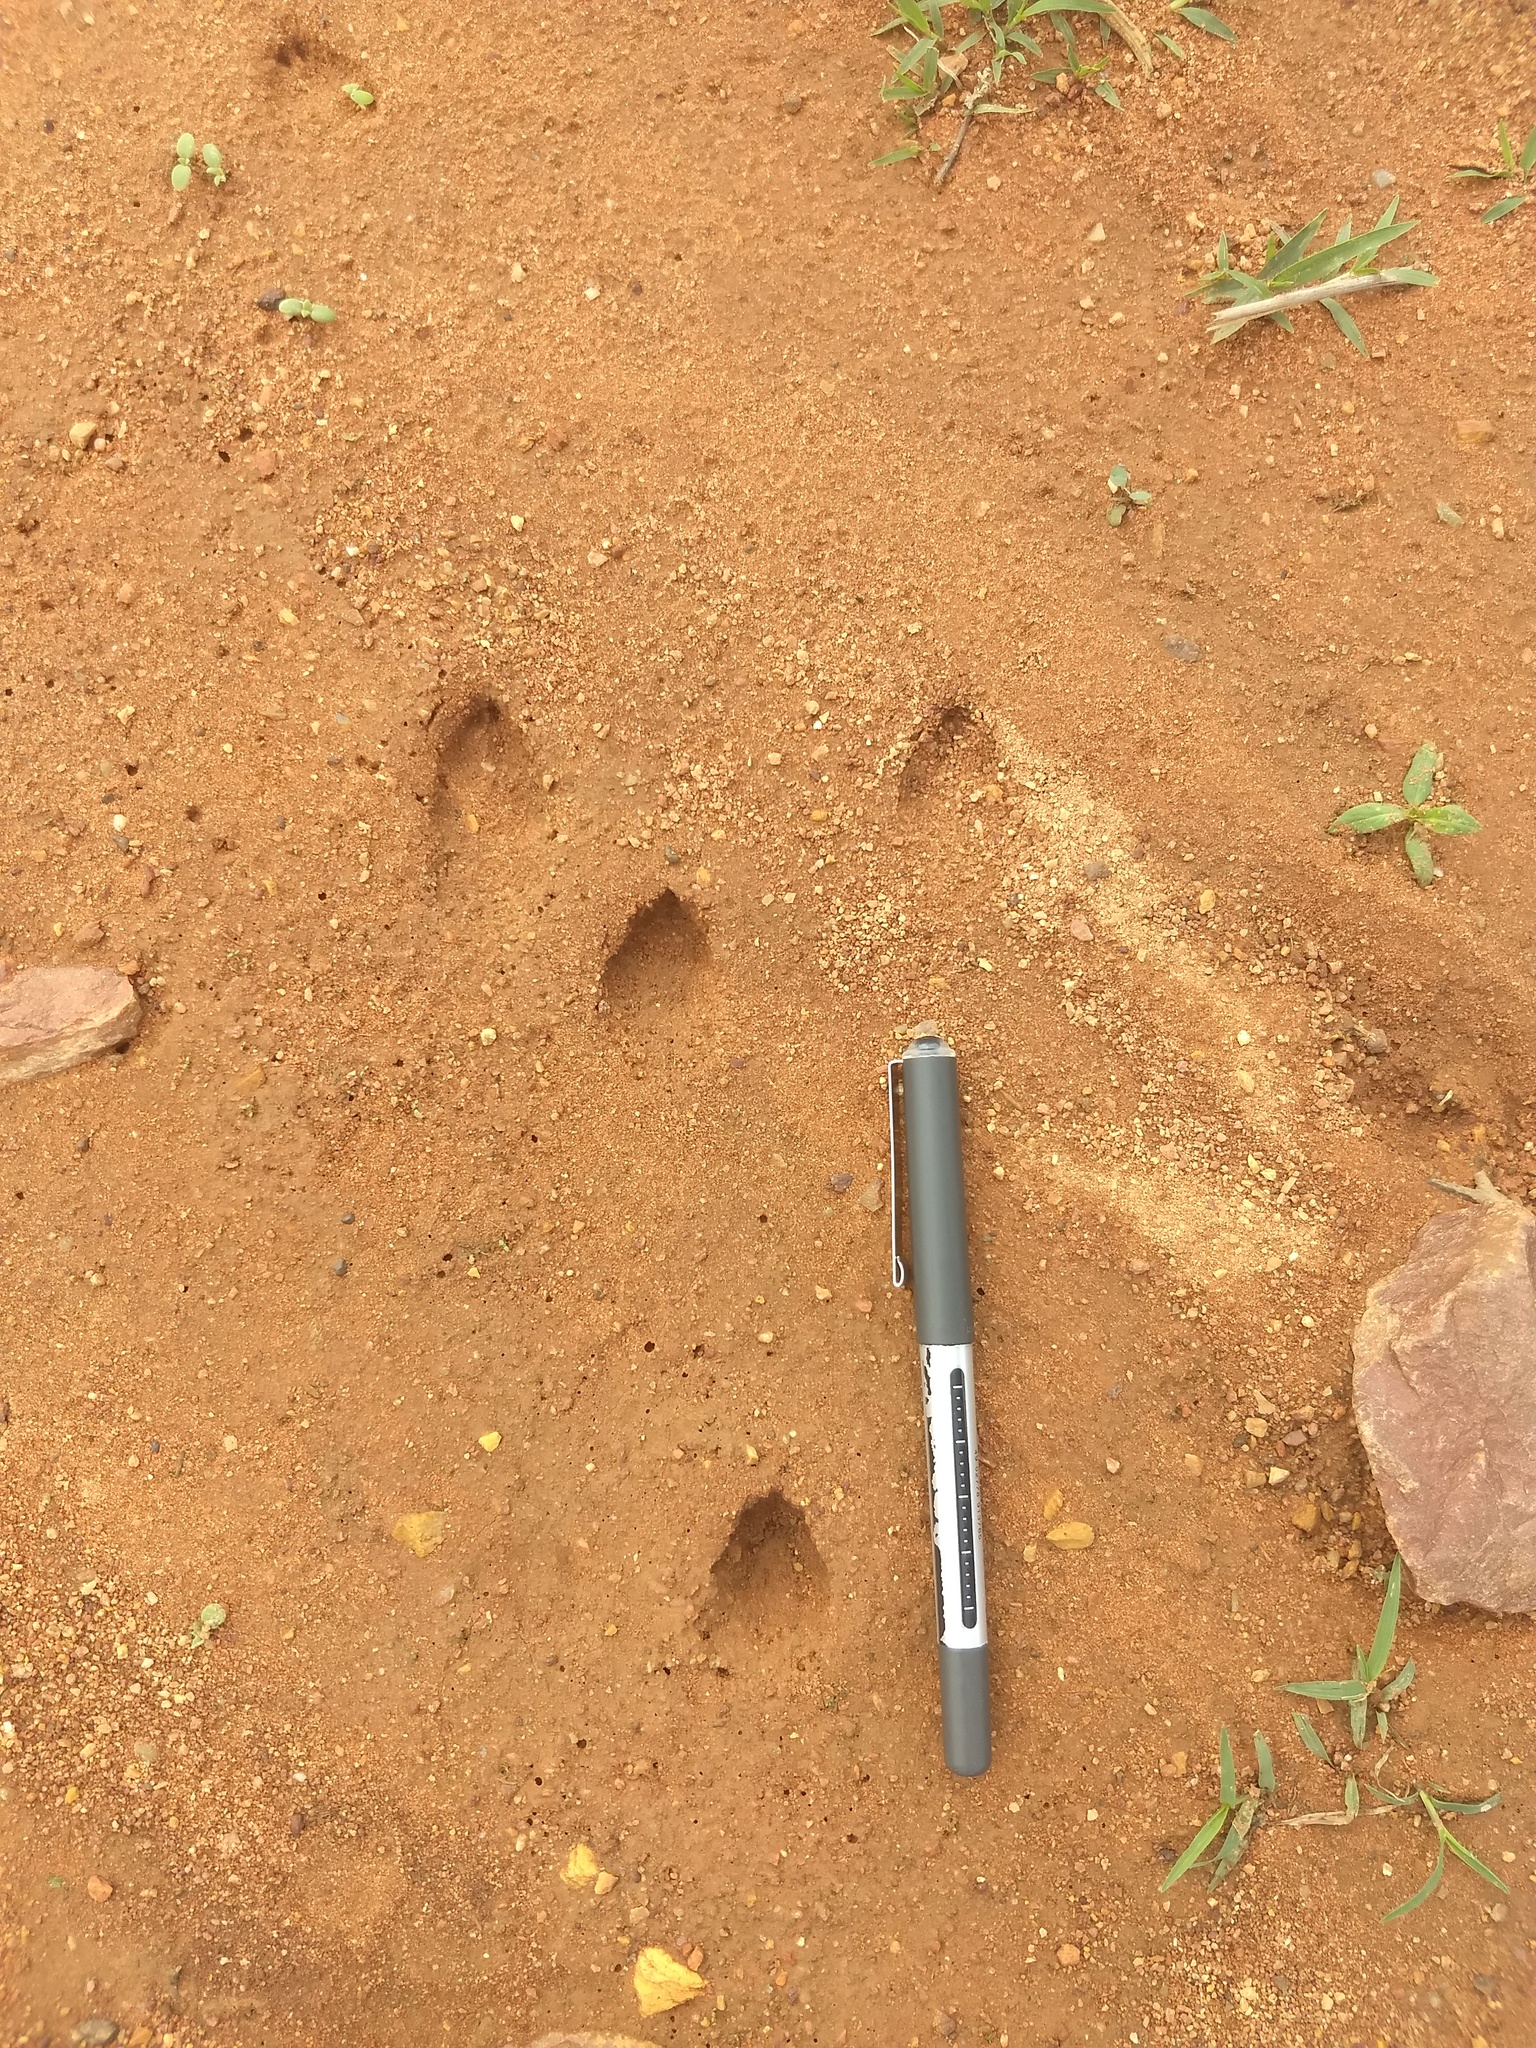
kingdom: Animalia
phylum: Chordata
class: Mammalia
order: Lagomorpha
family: Leporidae
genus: Lepus
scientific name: Lepus nigricollis
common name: Indian hare
